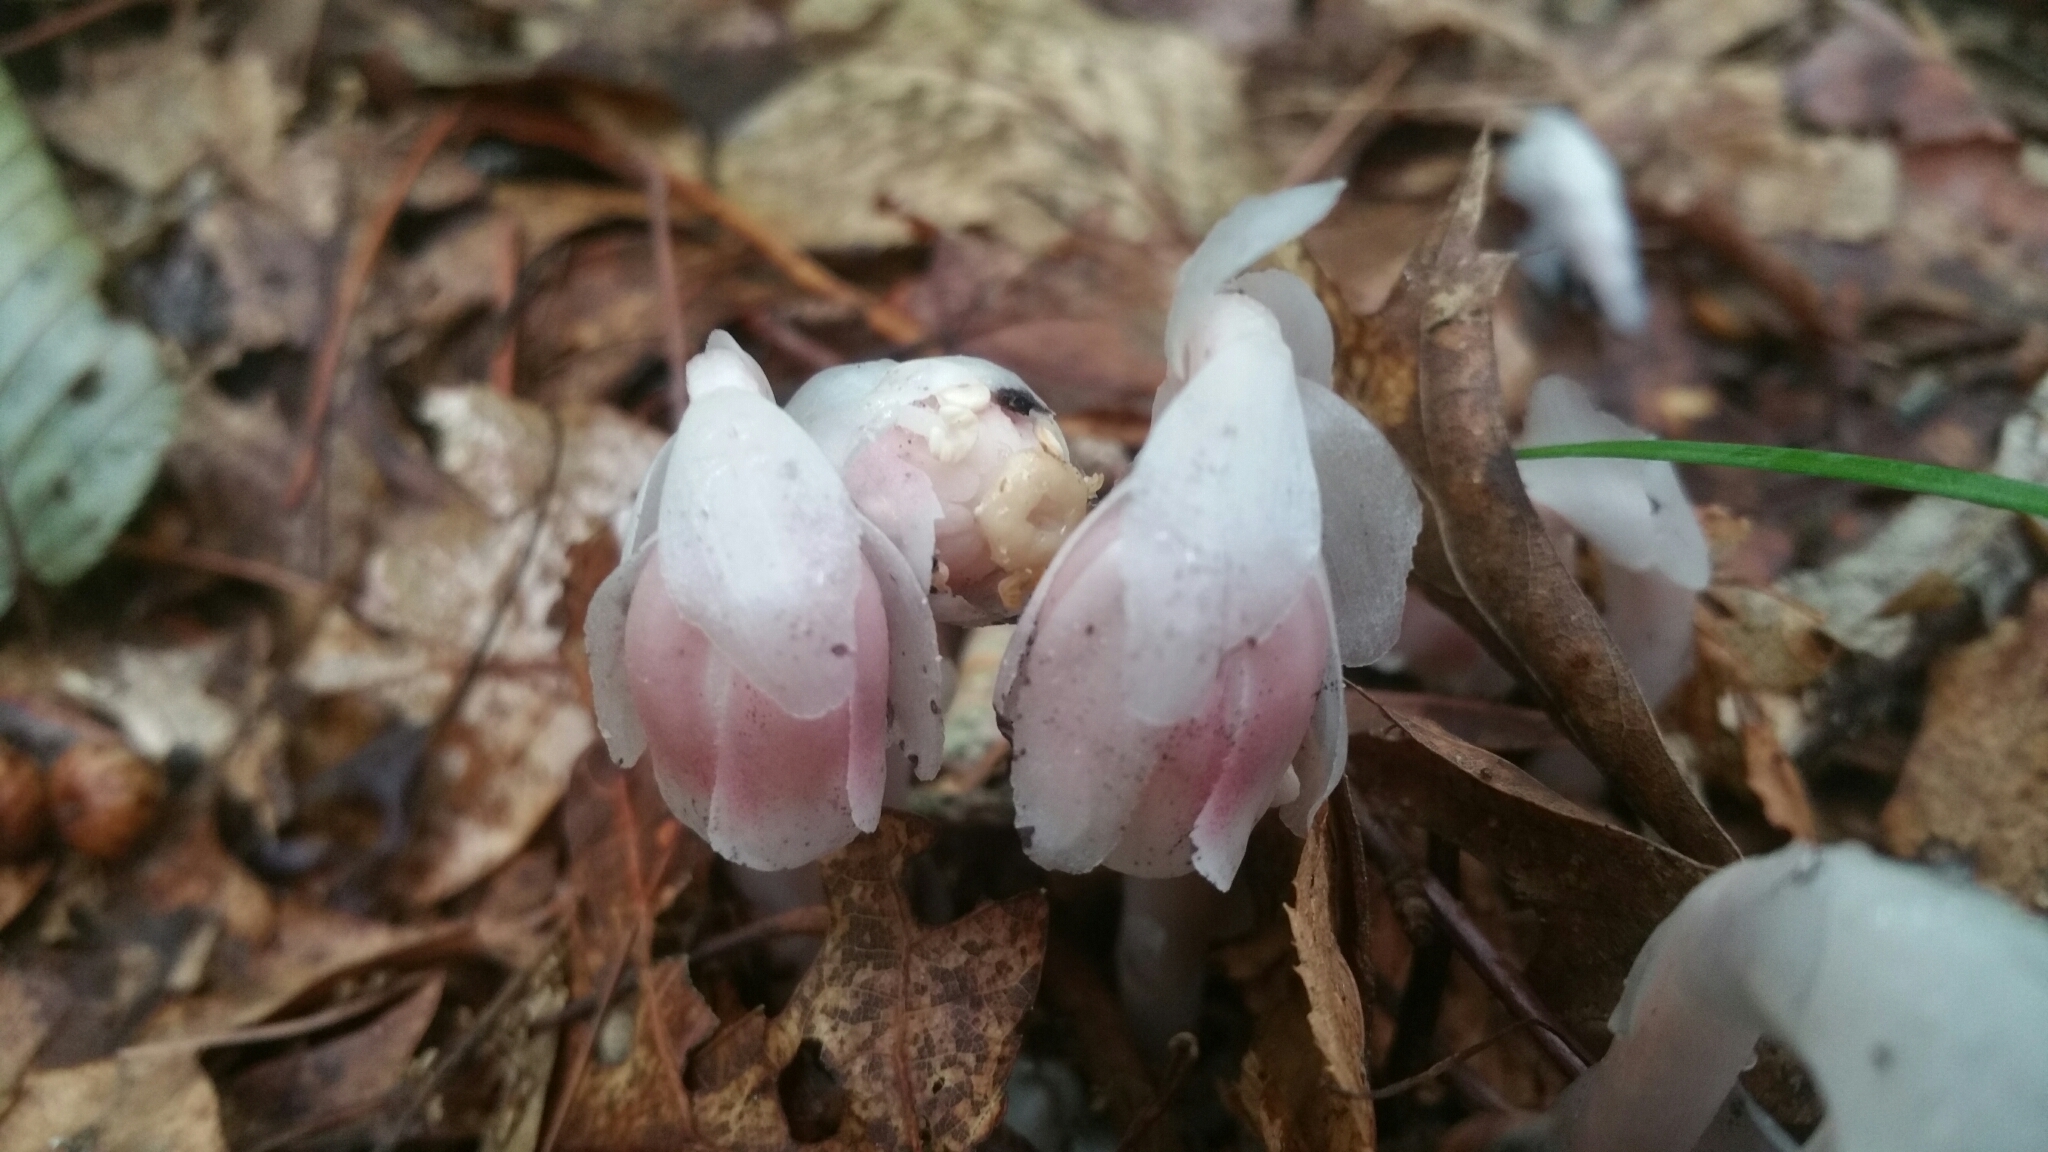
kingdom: Plantae
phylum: Tracheophyta
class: Magnoliopsida
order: Ericales
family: Ericaceae
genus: Monotropa
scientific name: Monotropa uniflora
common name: Convulsion root
